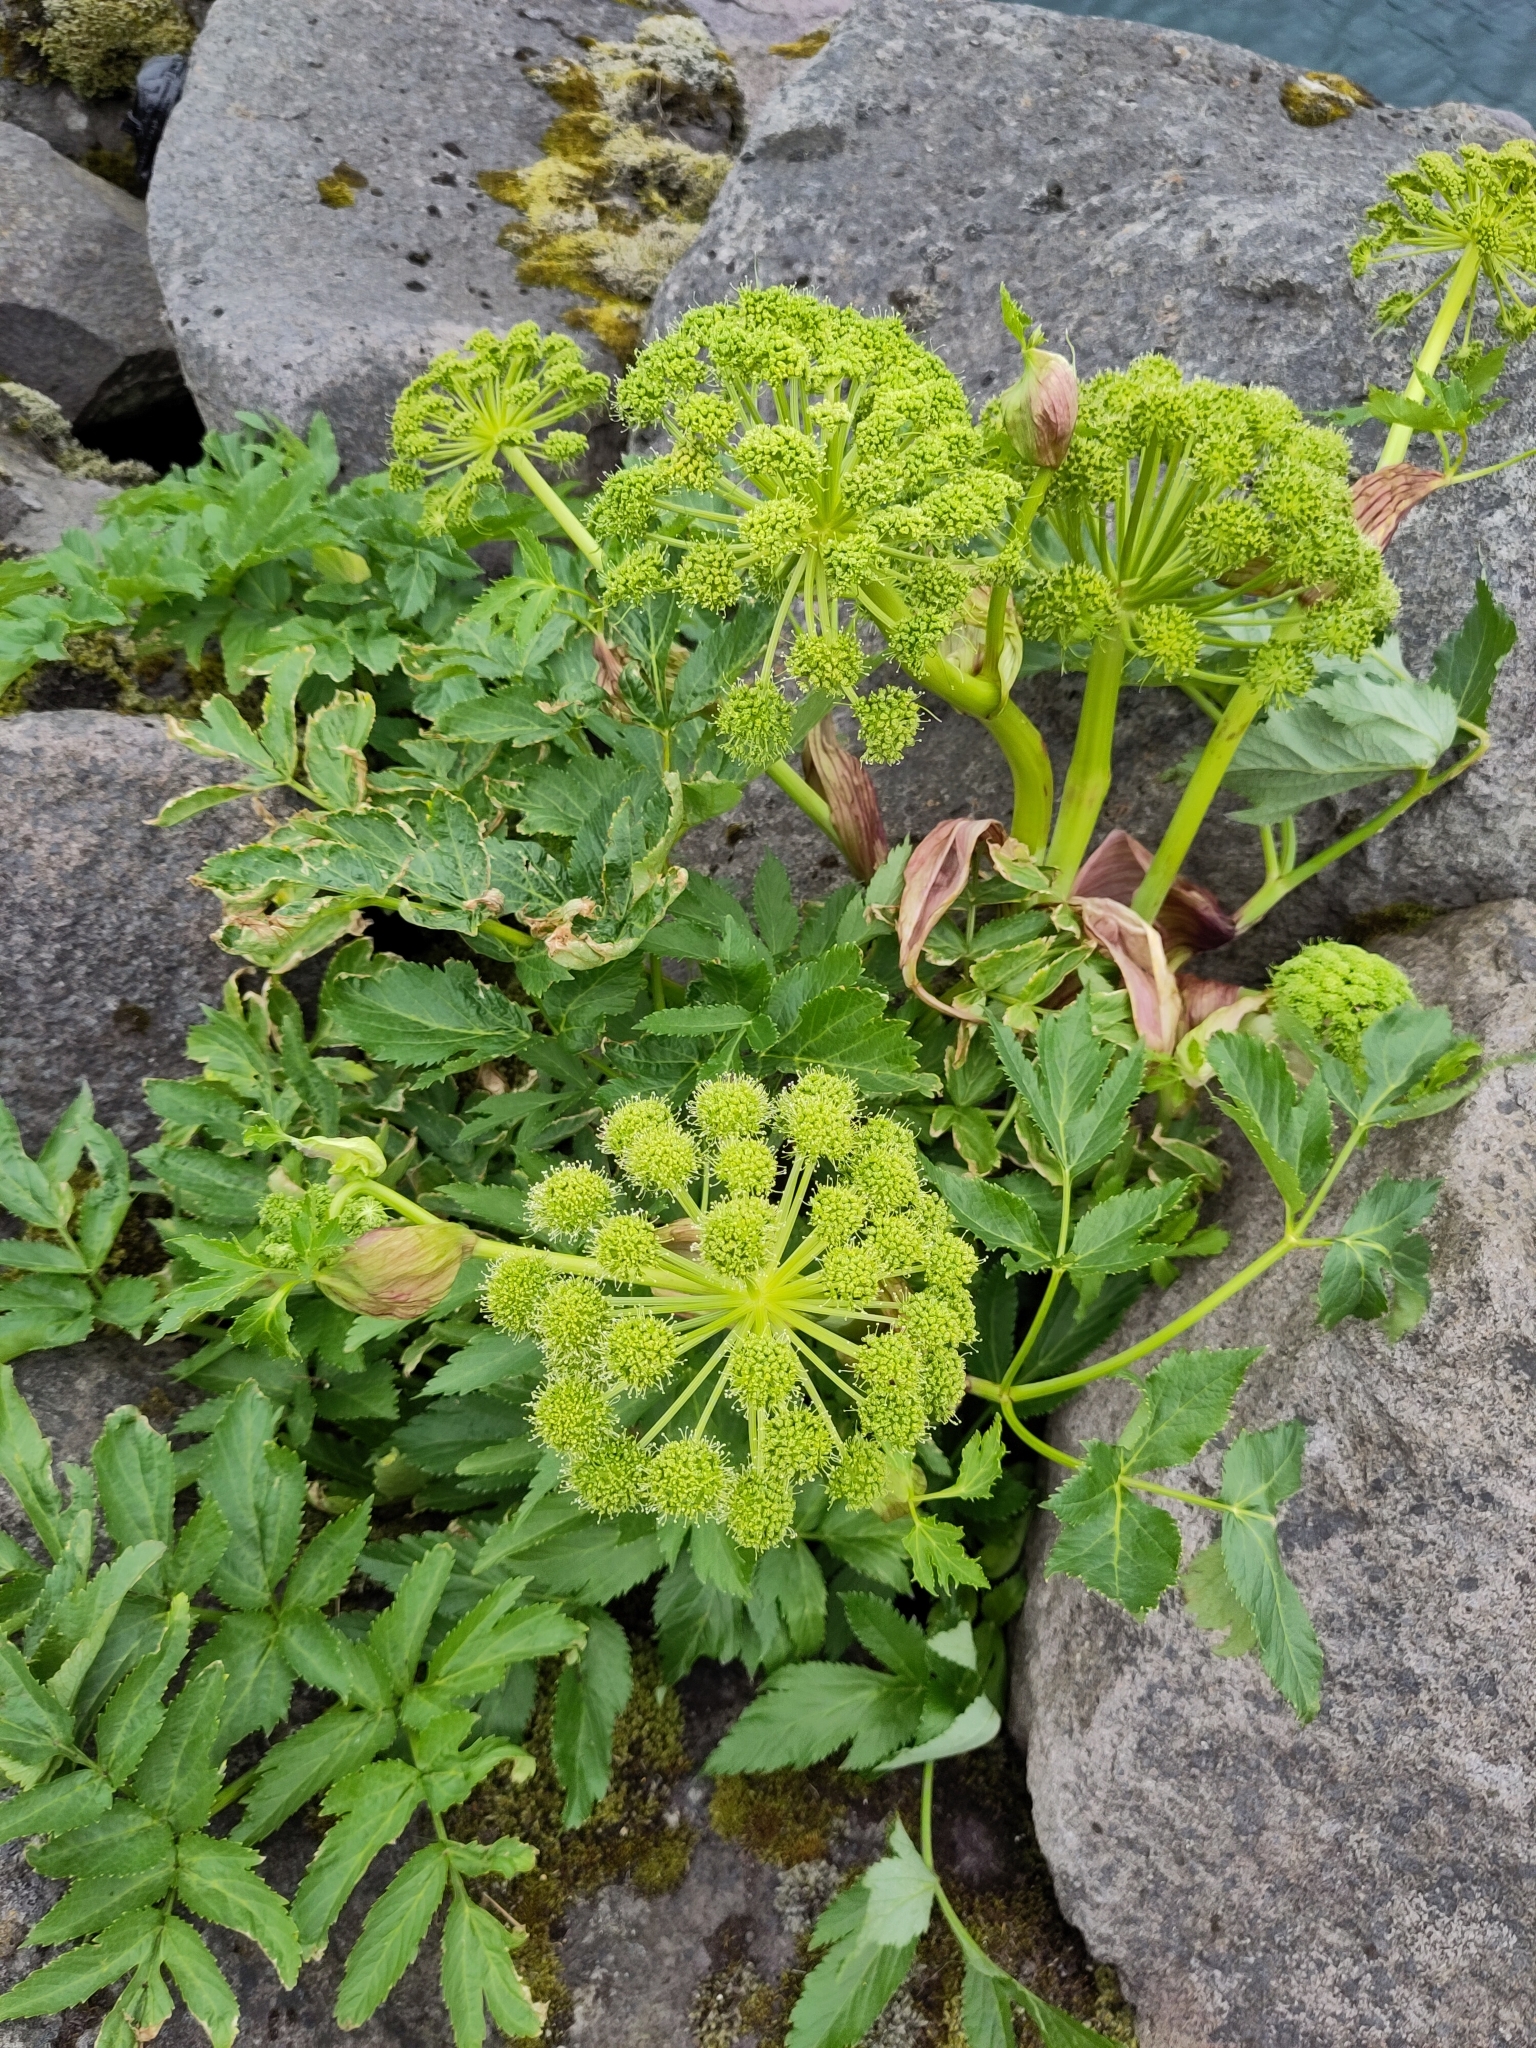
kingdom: Plantae
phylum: Tracheophyta
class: Magnoliopsida
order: Apiales
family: Apiaceae
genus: Angelica
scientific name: Angelica archangelica
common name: Garden angelica
